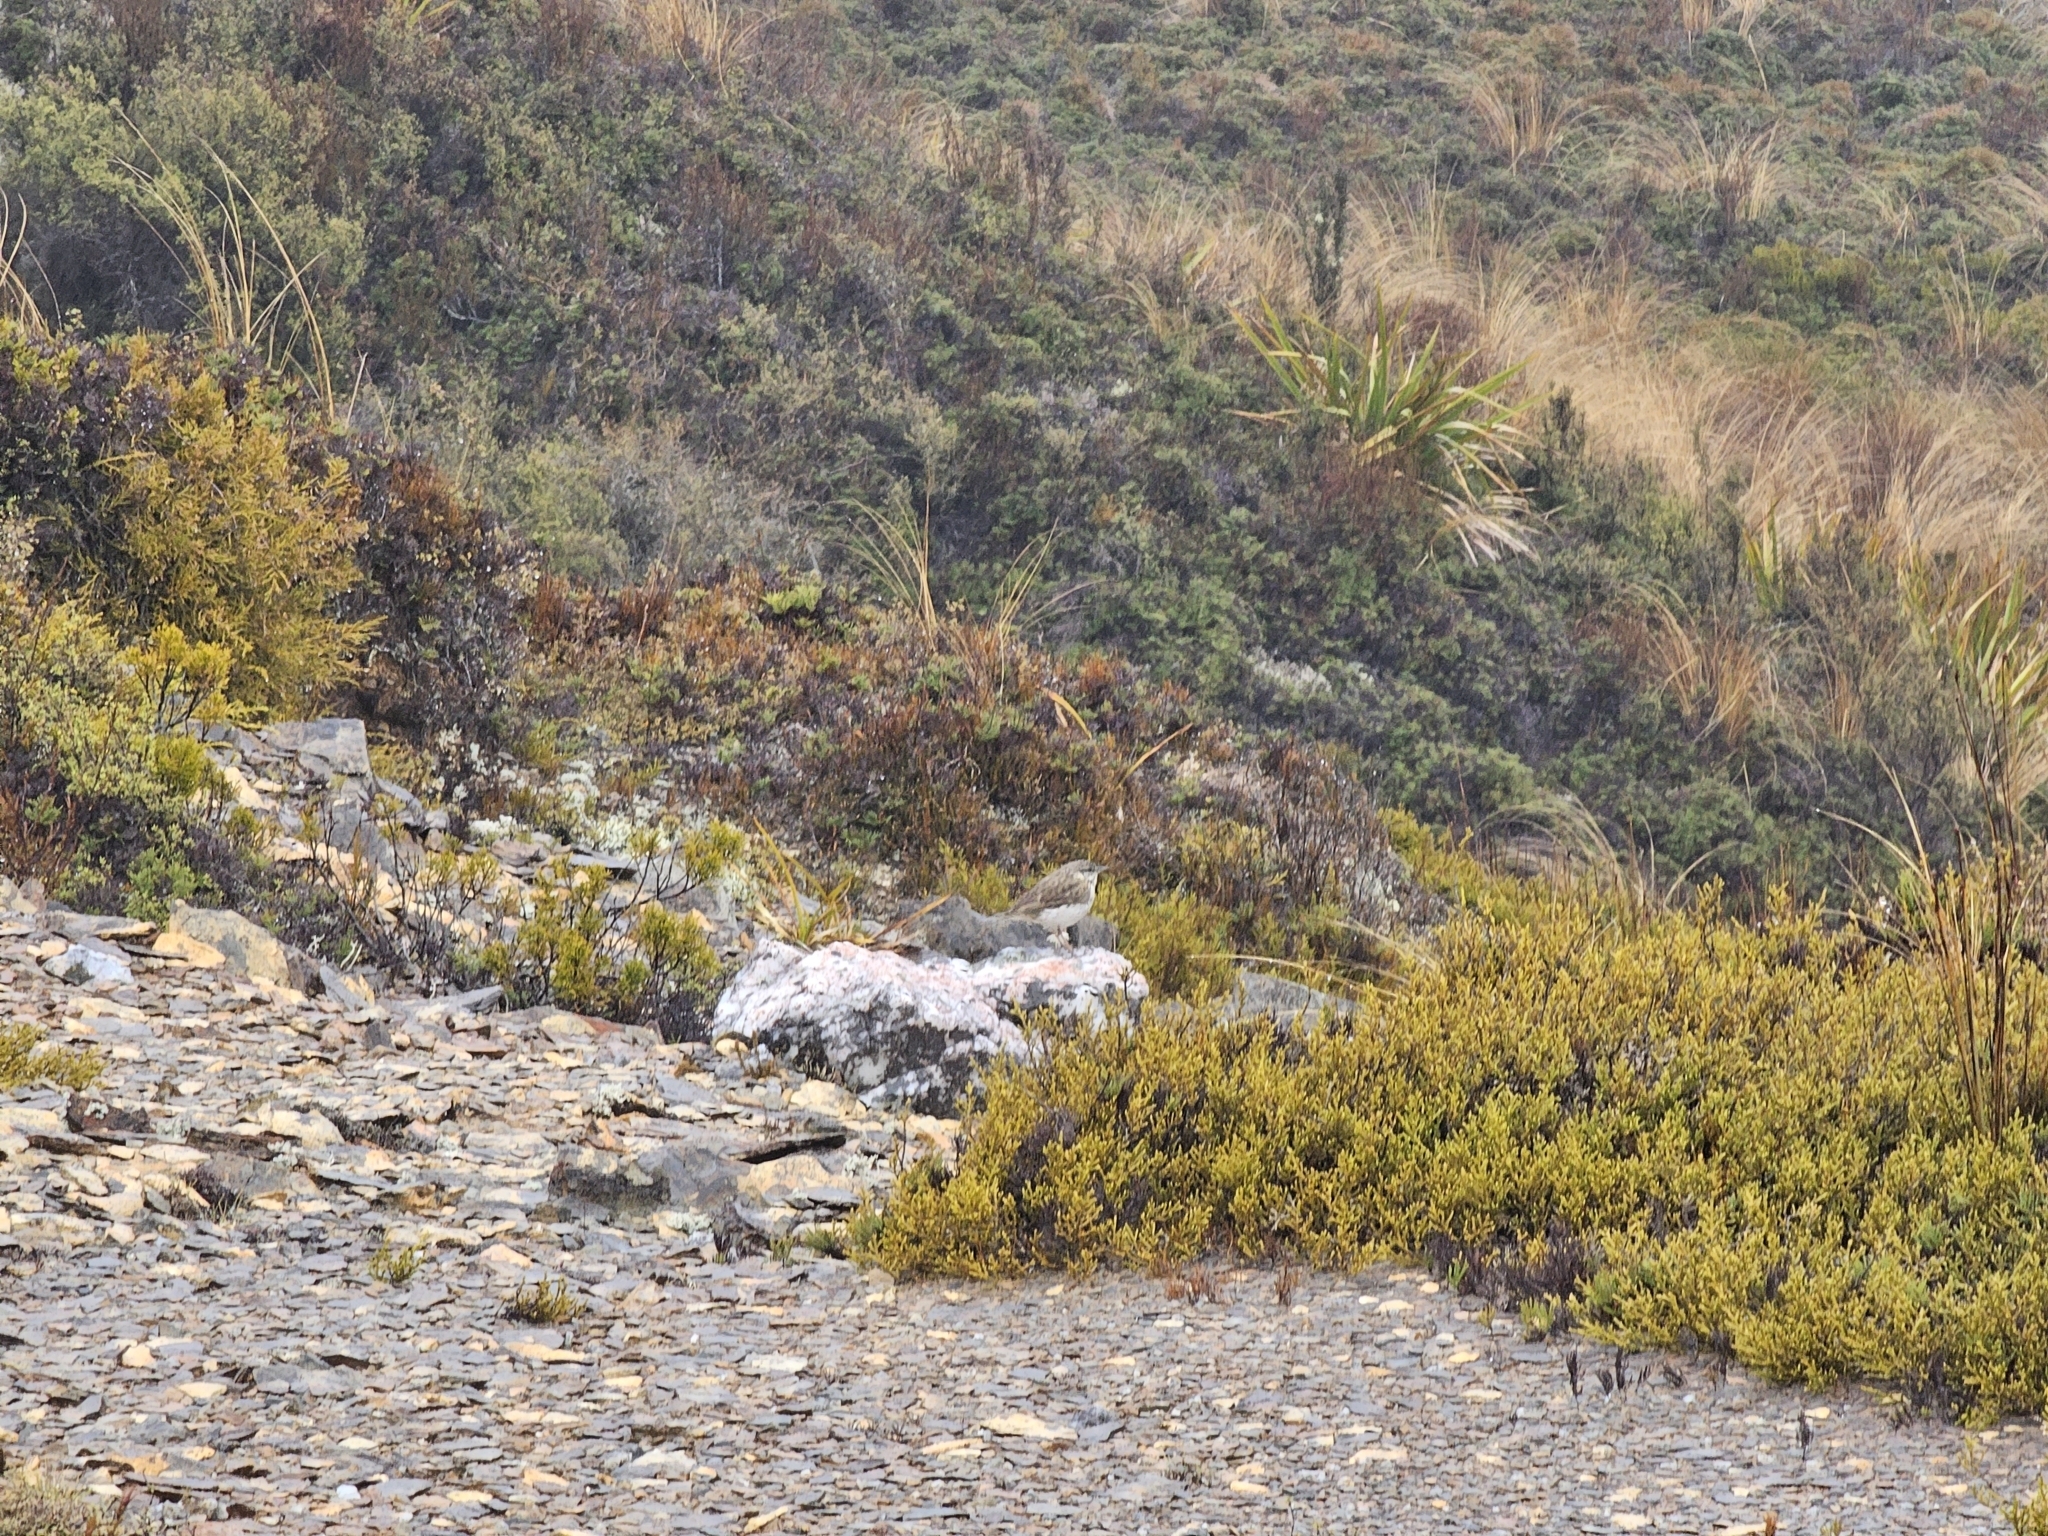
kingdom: Animalia
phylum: Chordata
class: Aves
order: Passeriformes
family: Motacillidae
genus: Anthus
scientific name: Anthus novaeseelandiae
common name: New zealand pipit
